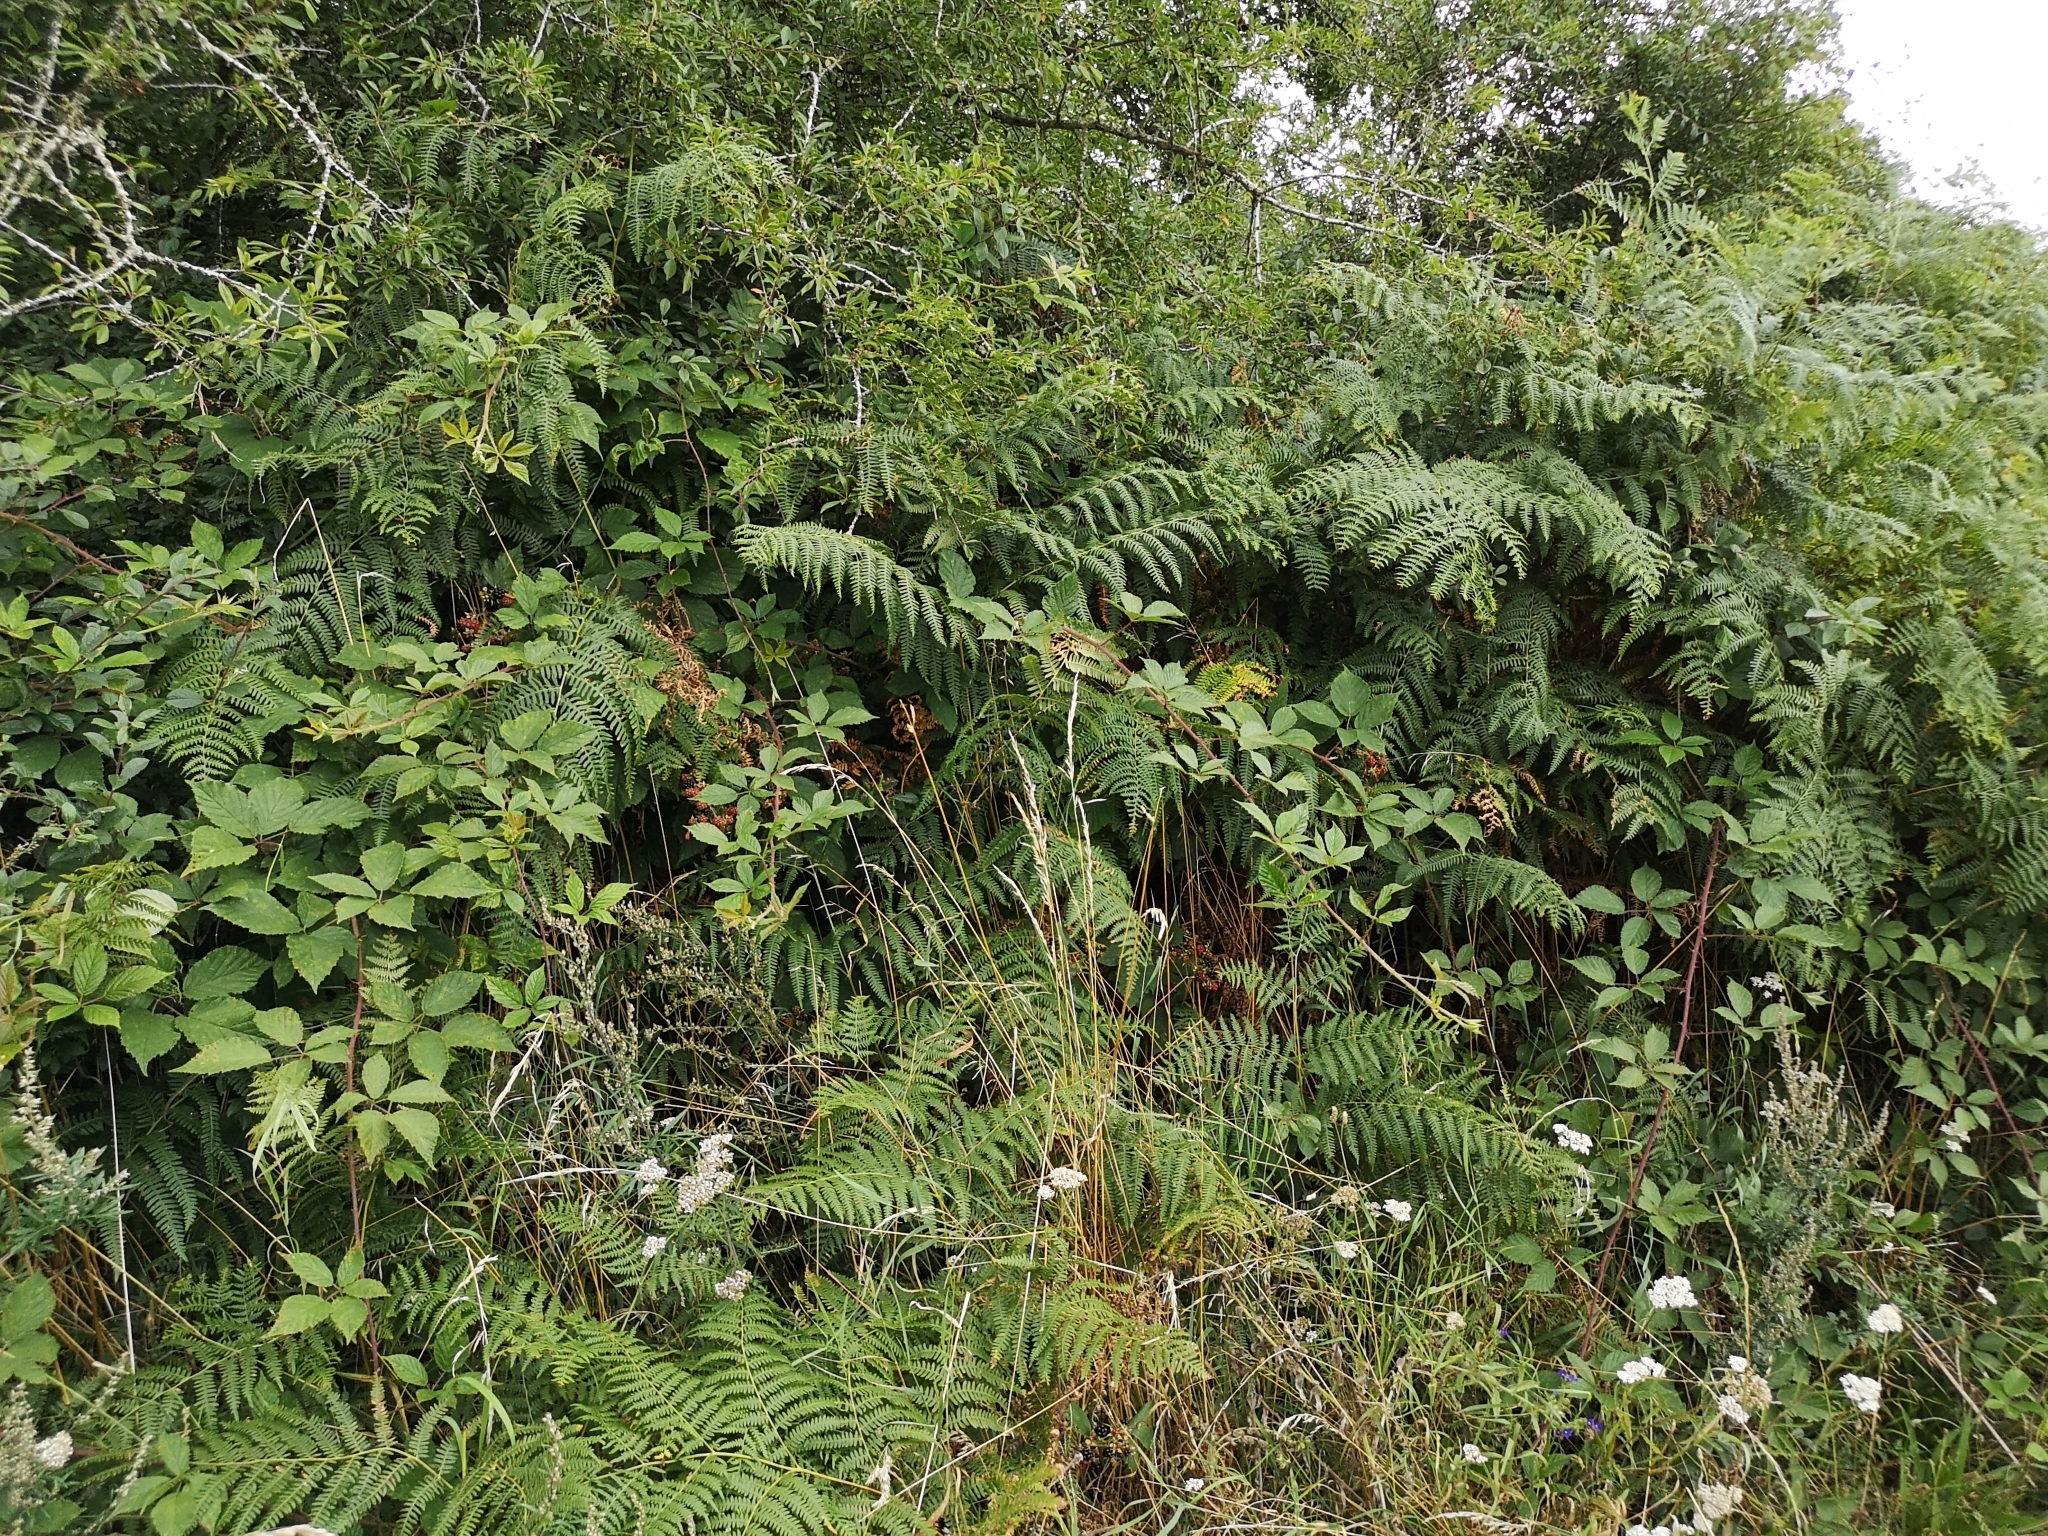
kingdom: Plantae
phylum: Tracheophyta
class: Polypodiopsida
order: Polypodiales
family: Dennstaedtiaceae
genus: Pteridium
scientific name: Pteridium aquilinum
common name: Bracken
